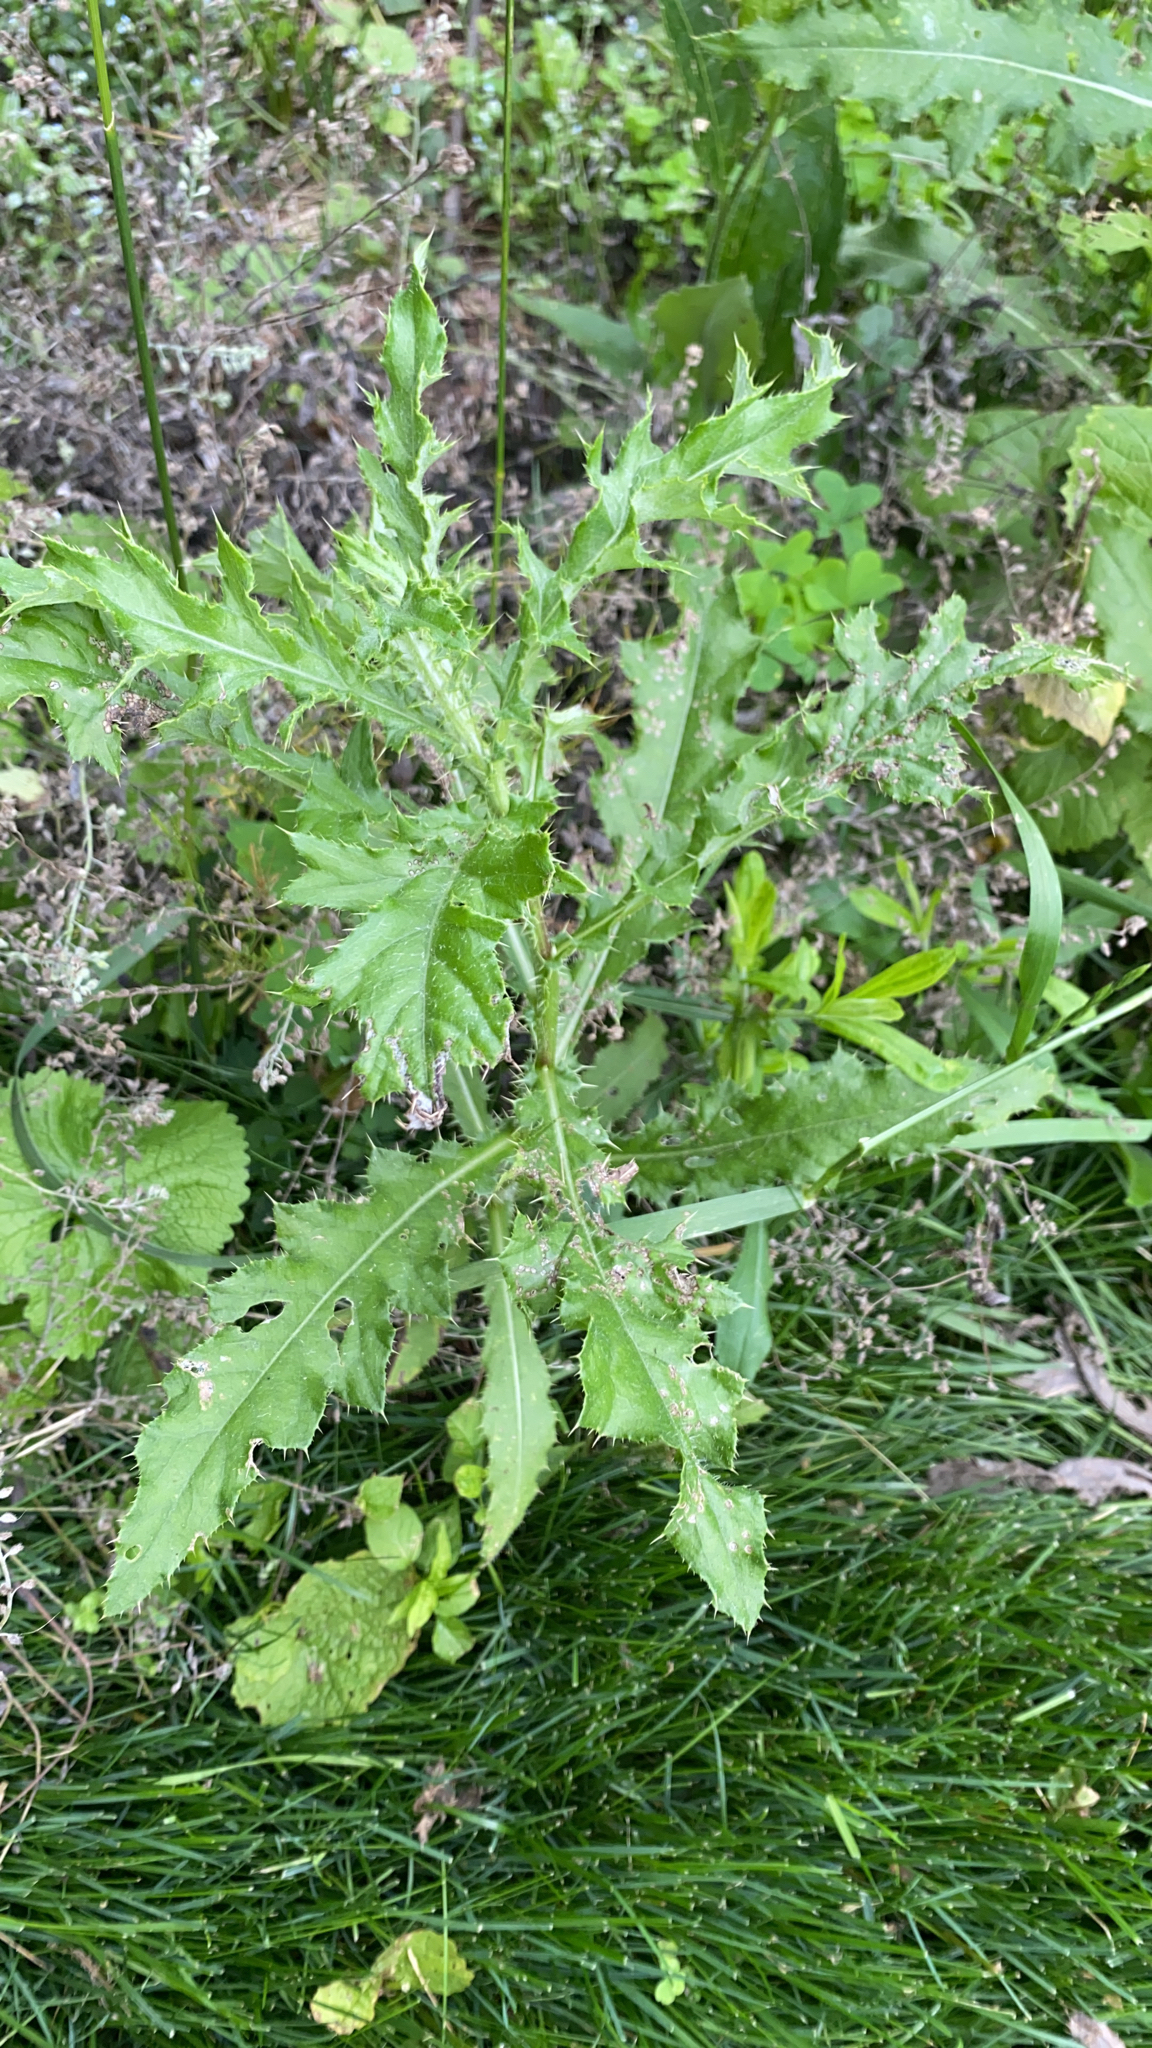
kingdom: Plantae
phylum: Tracheophyta
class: Magnoliopsida
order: Asterales
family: Asteraceae
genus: Cirsium
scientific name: Cirsium arvense
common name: Creeping thistle
